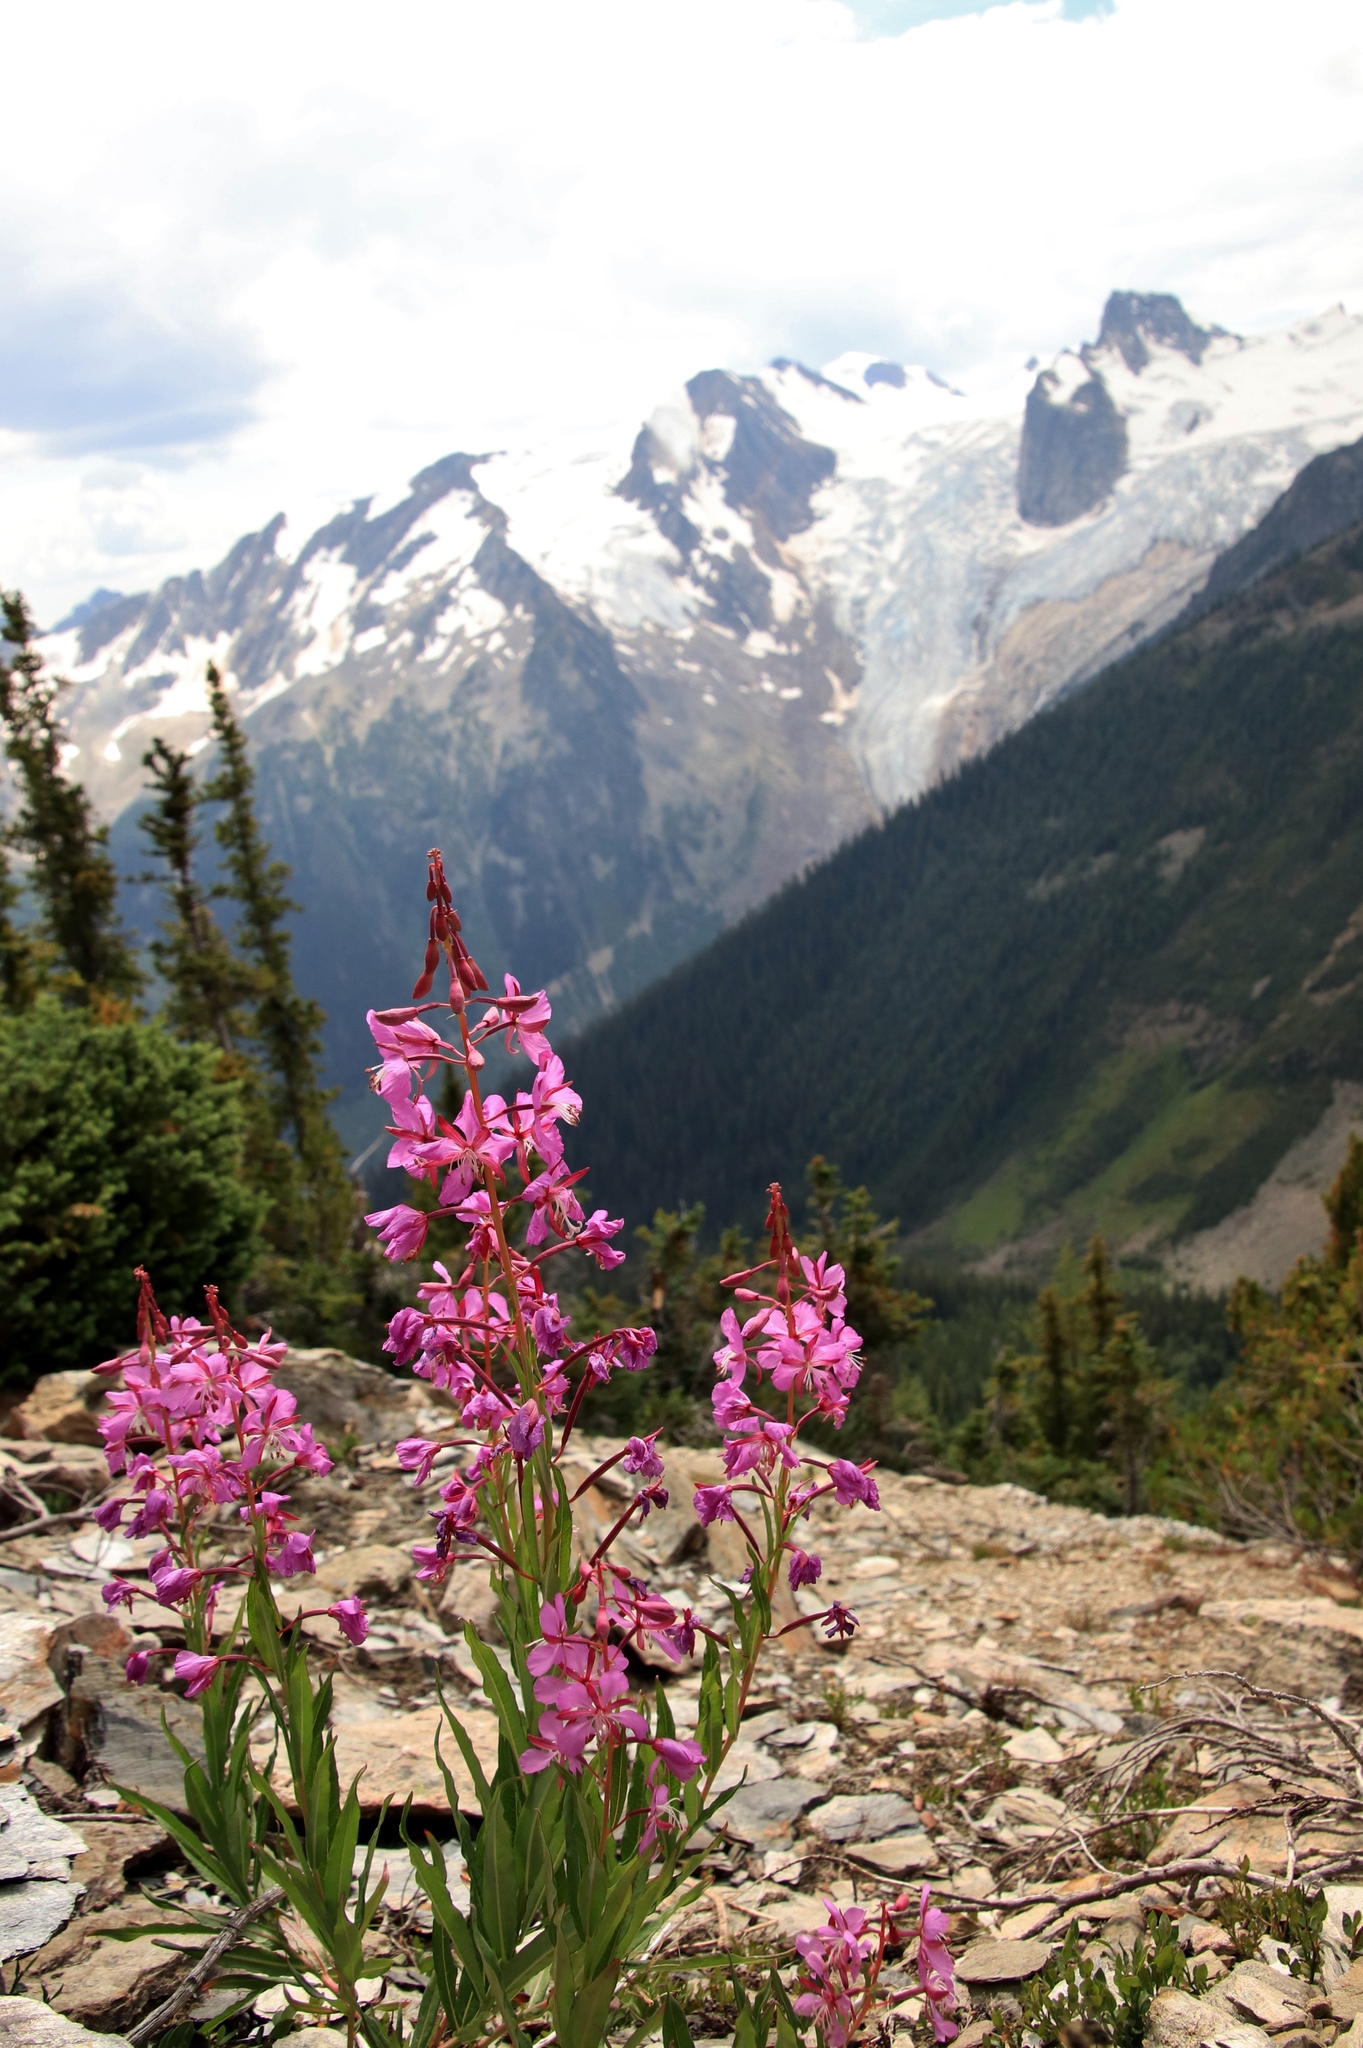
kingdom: Plantae
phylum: Tracheophyta
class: Magnoliopsida
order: Myrtales
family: Onagraceae
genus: Chamaenerion
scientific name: Chamaenerion angustifolium
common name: Fireweed
